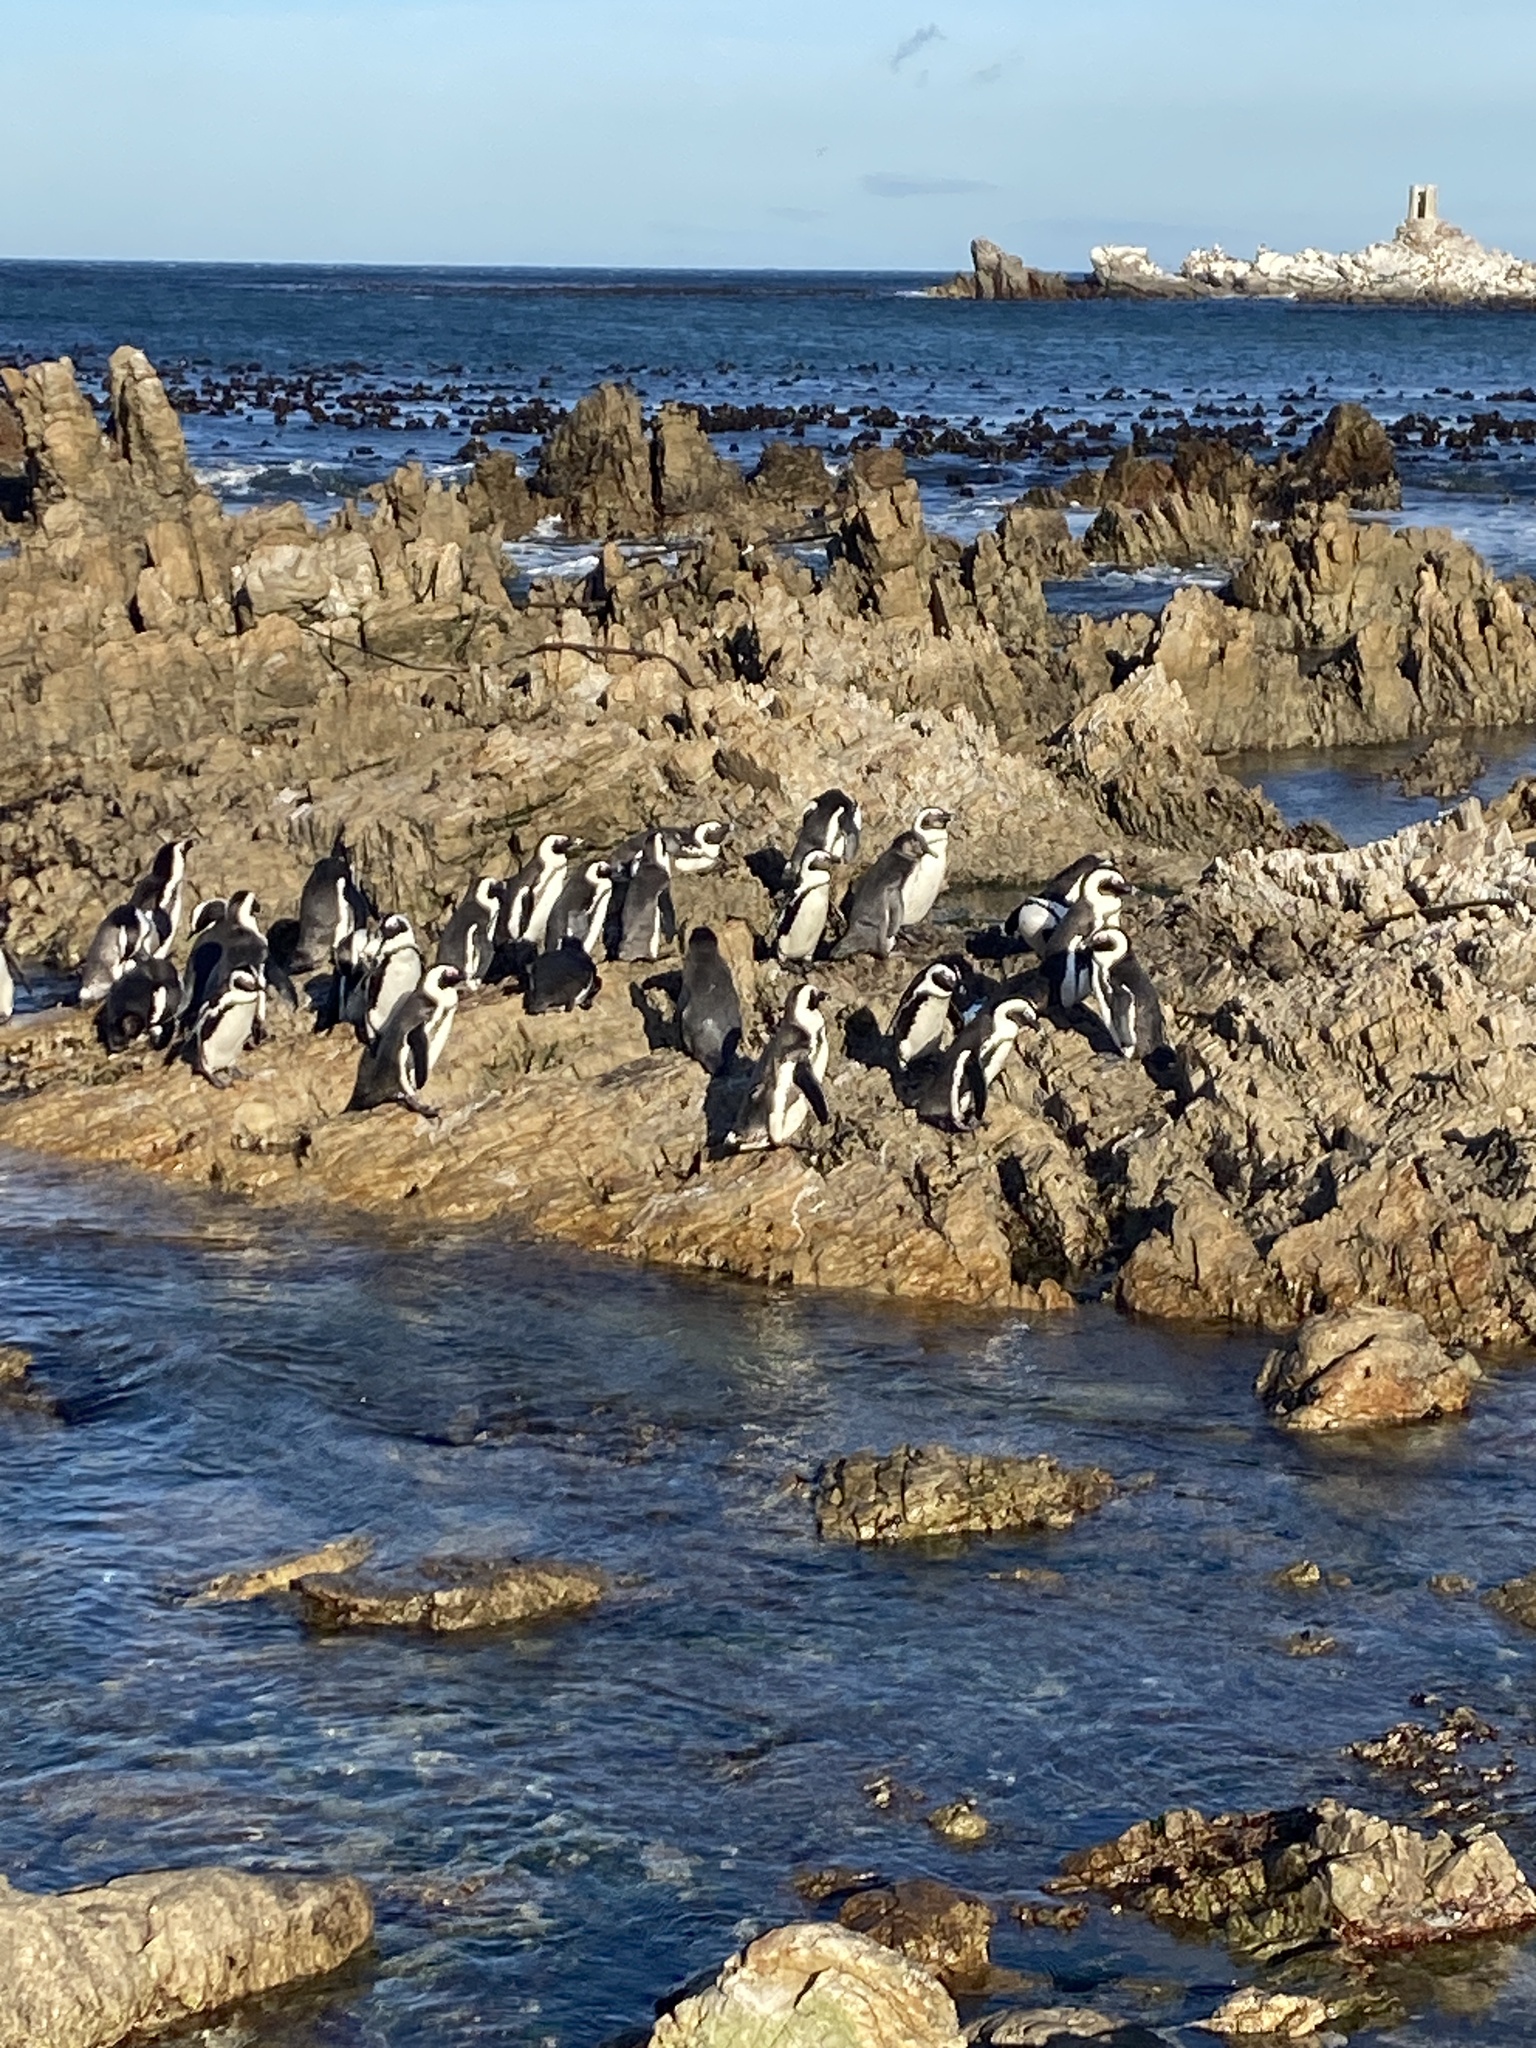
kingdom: Animalia
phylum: Chordata
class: Aves
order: Sphenisciformes
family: Spheniscidae
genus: Spheniscus
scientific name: Spheniscus demersus
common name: African penguin
